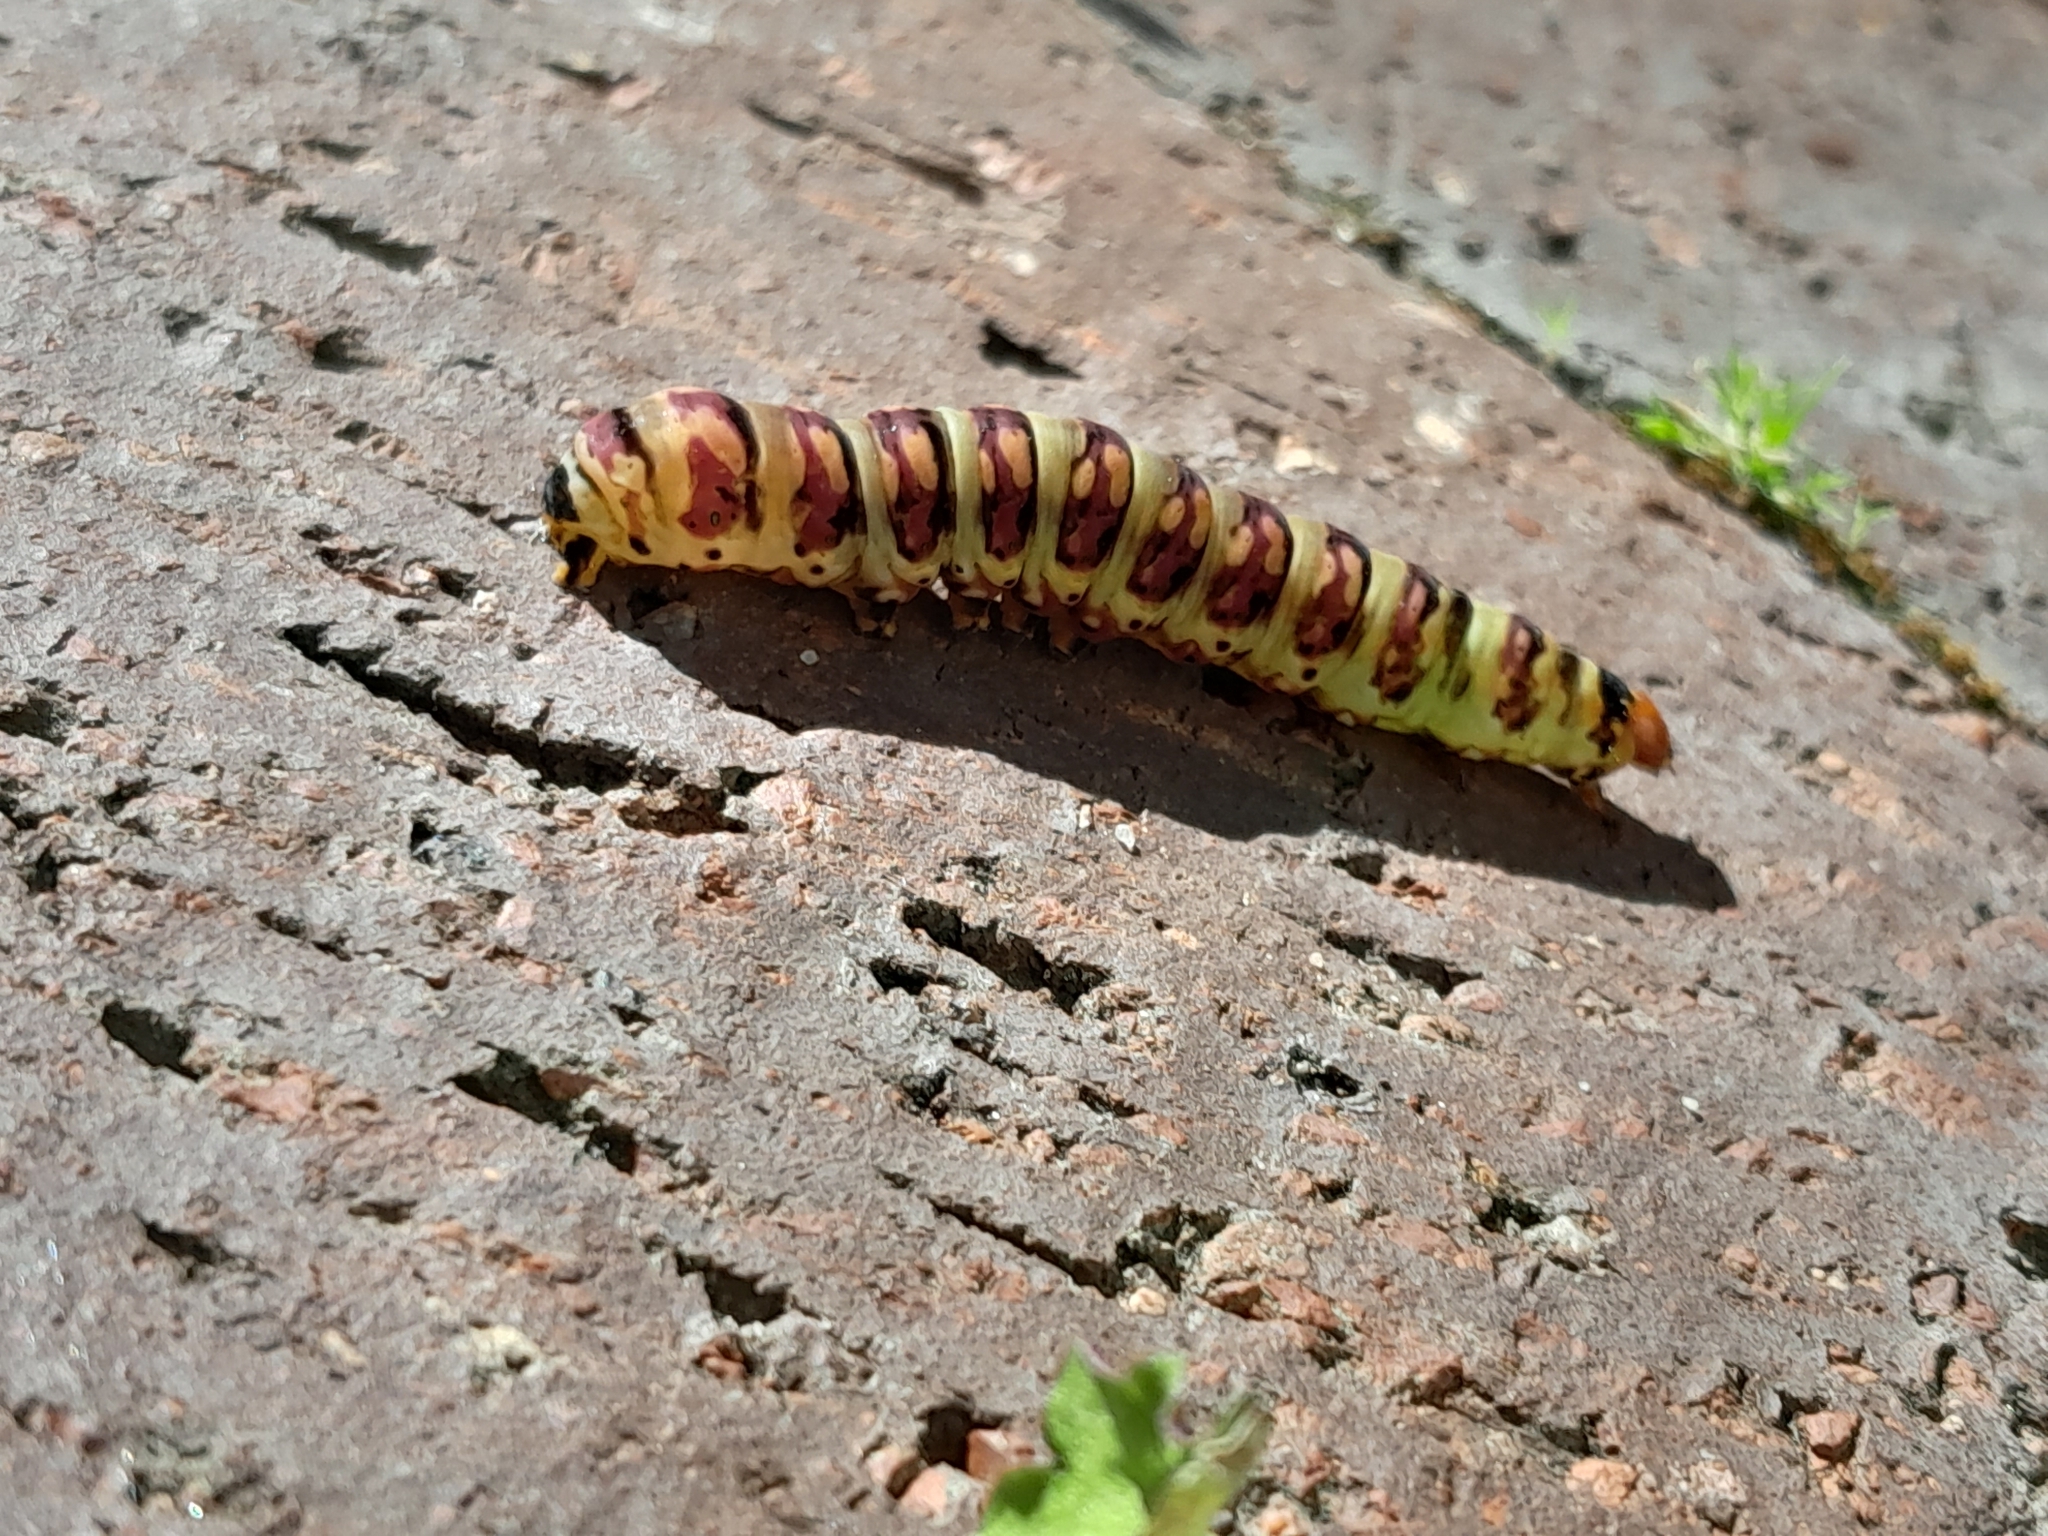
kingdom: Animalia
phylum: Arthropoda
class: Insecta
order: Lepidoptera
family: Noctuidae
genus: Klugeana
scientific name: Klugeana philoxalis
